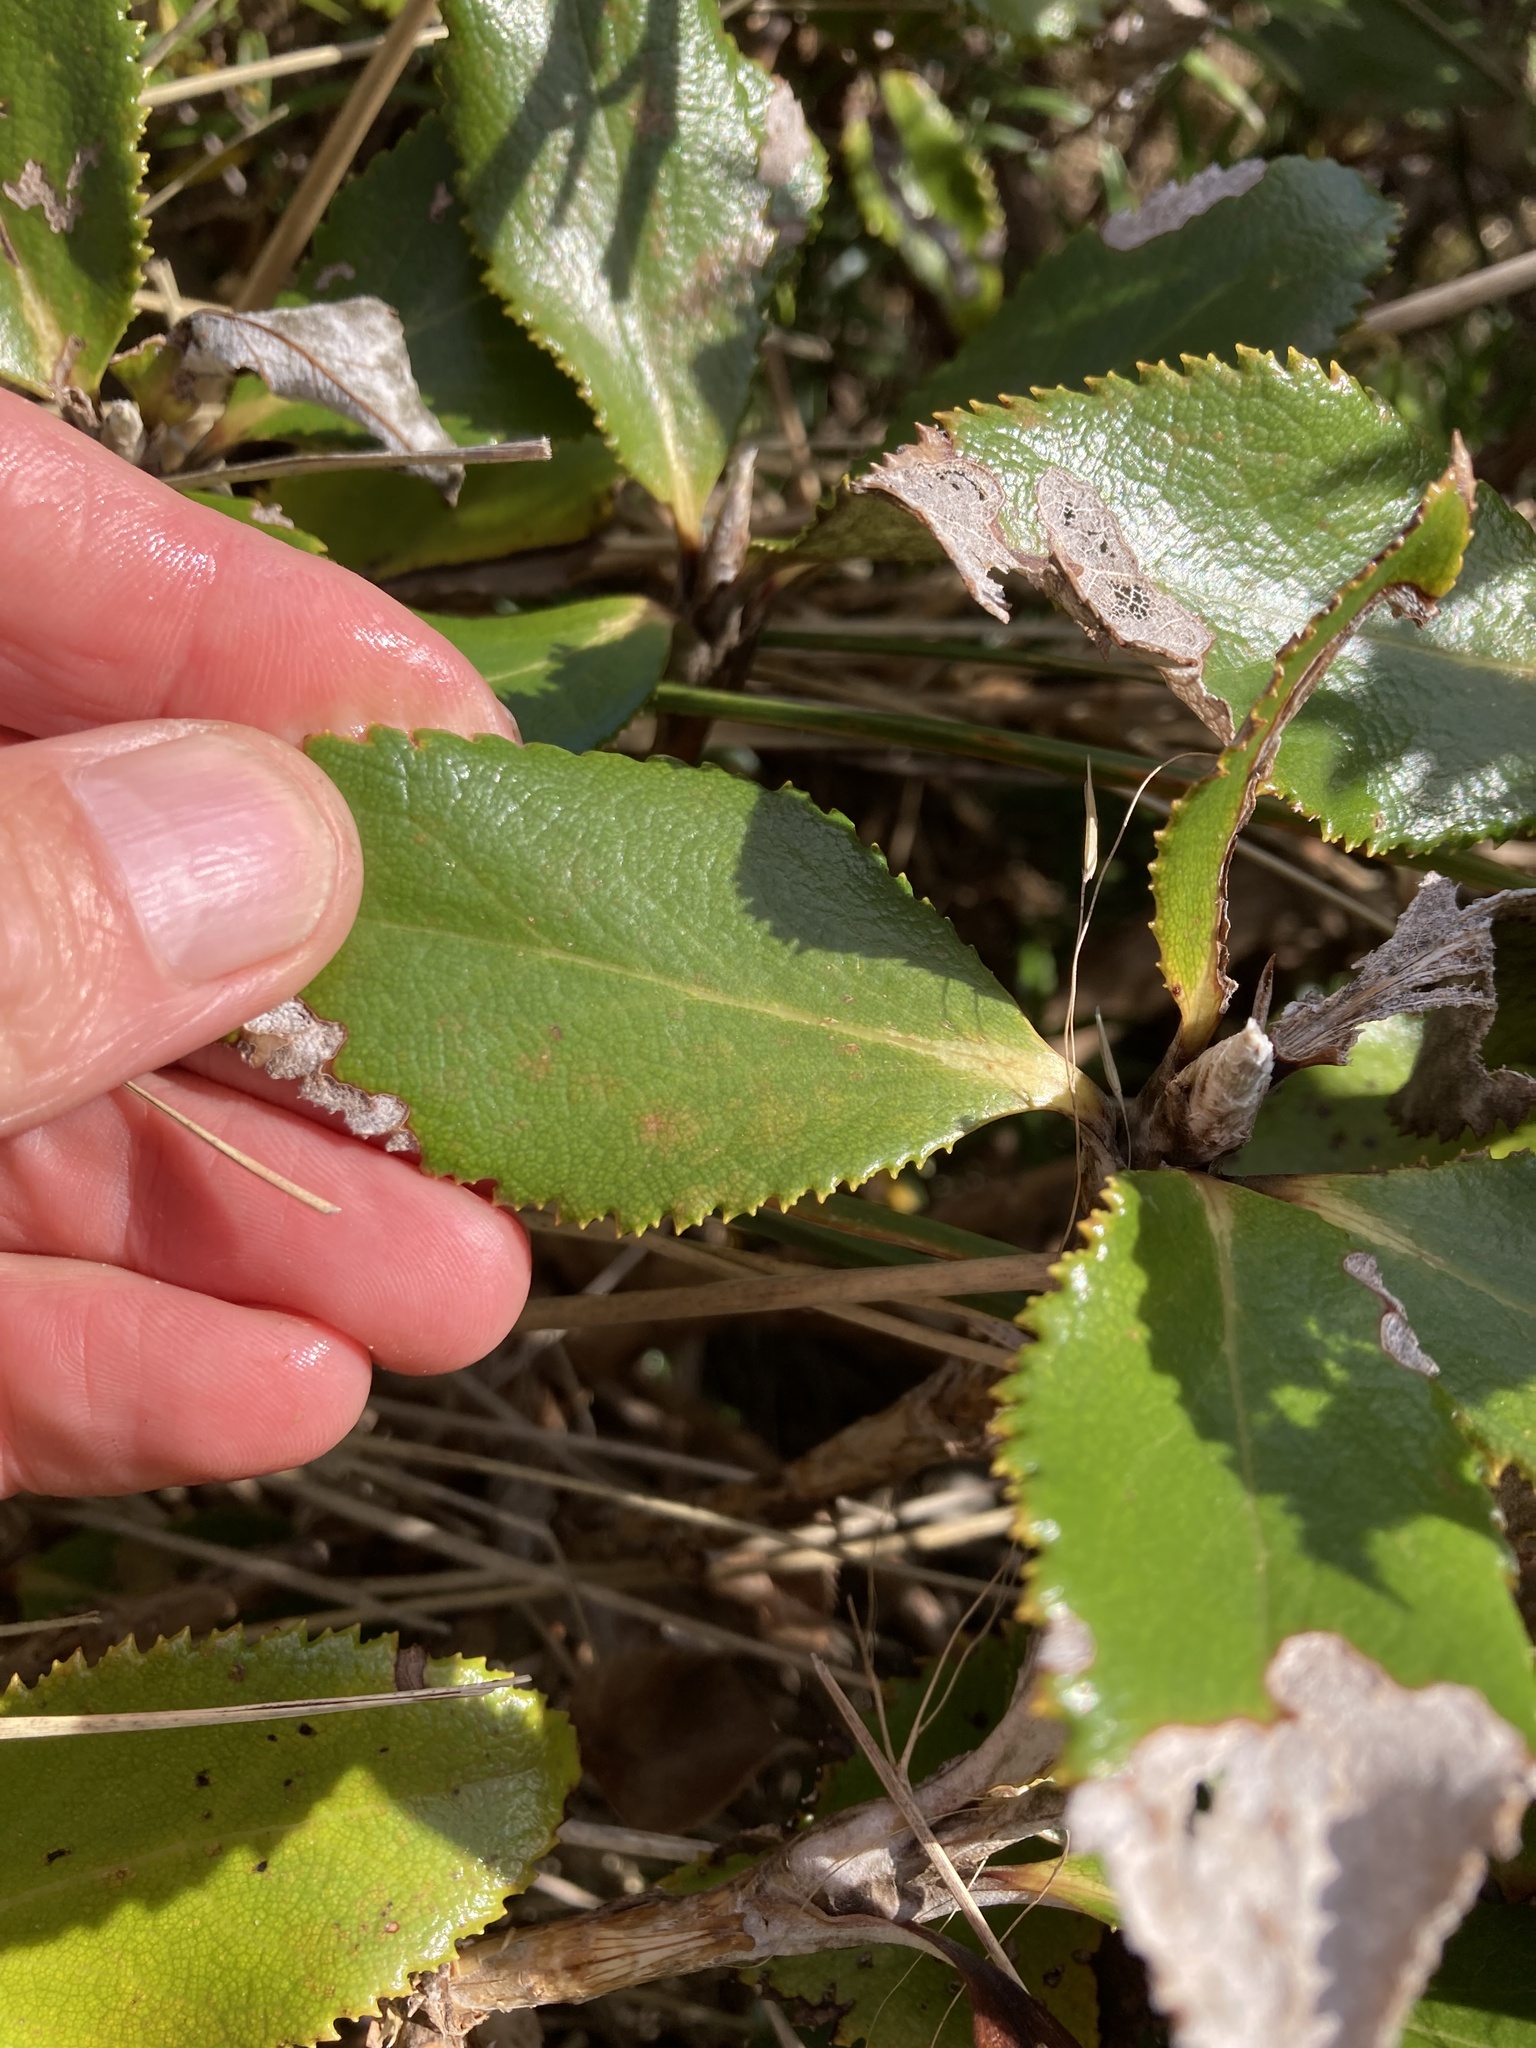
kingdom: Plantae
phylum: Tracheophyta
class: Magnoliopsida
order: Asterales
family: Asteraceae
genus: Macrolearia
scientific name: Macrolearia colensoi
